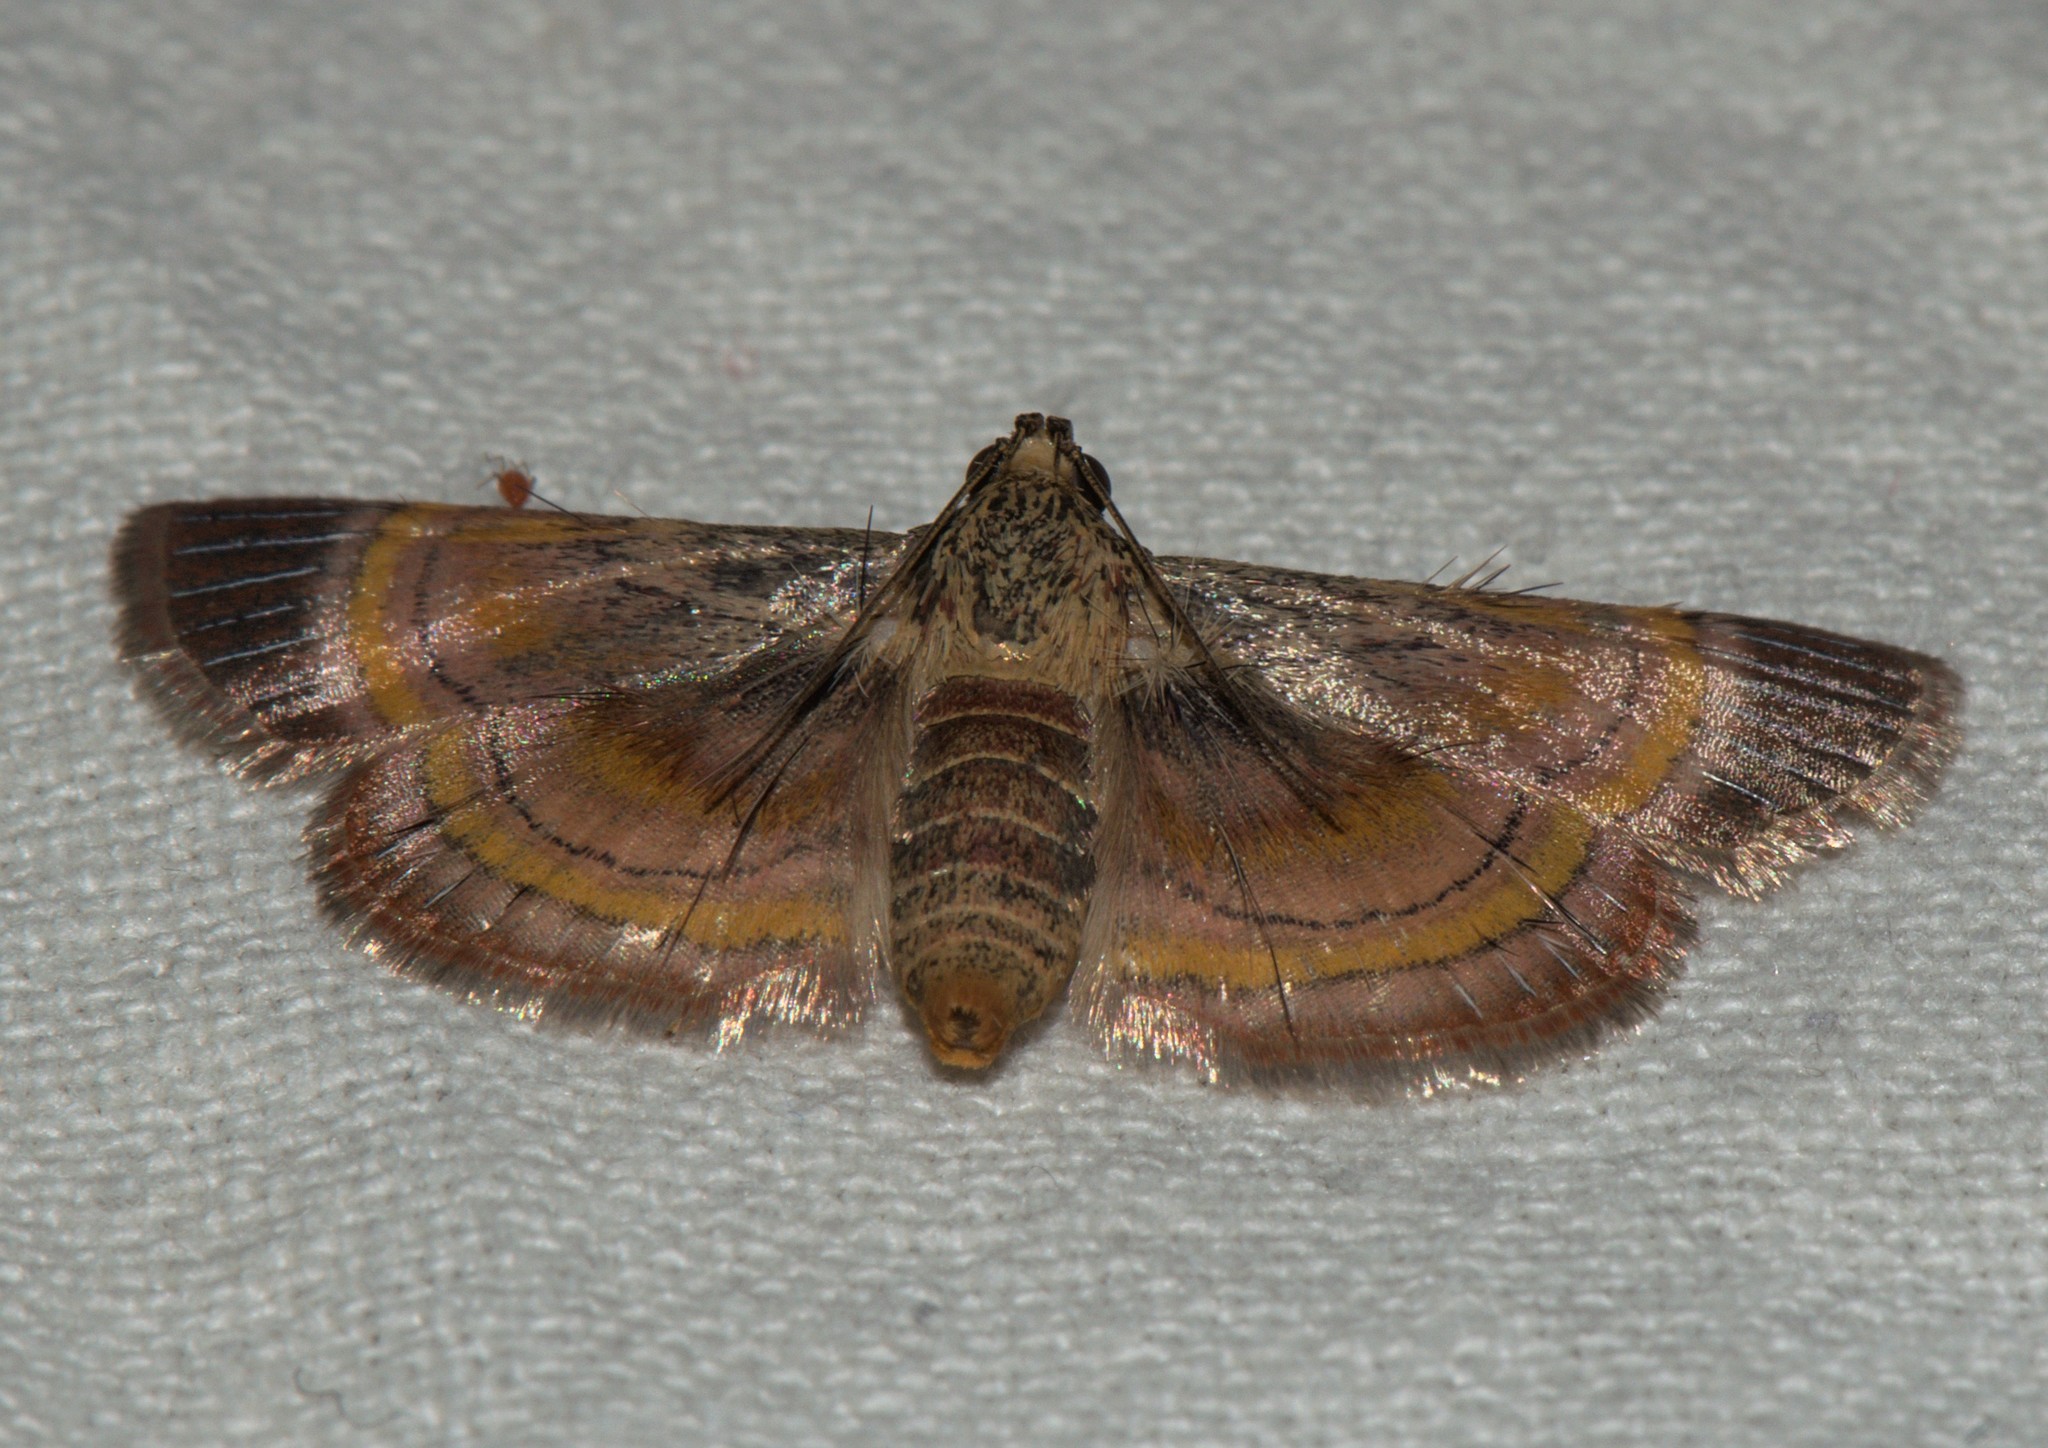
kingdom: Animalia
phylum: Arthropoda
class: Insecta
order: Lepidoptera
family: Pyralidae
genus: Lista
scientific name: Lista ficki
